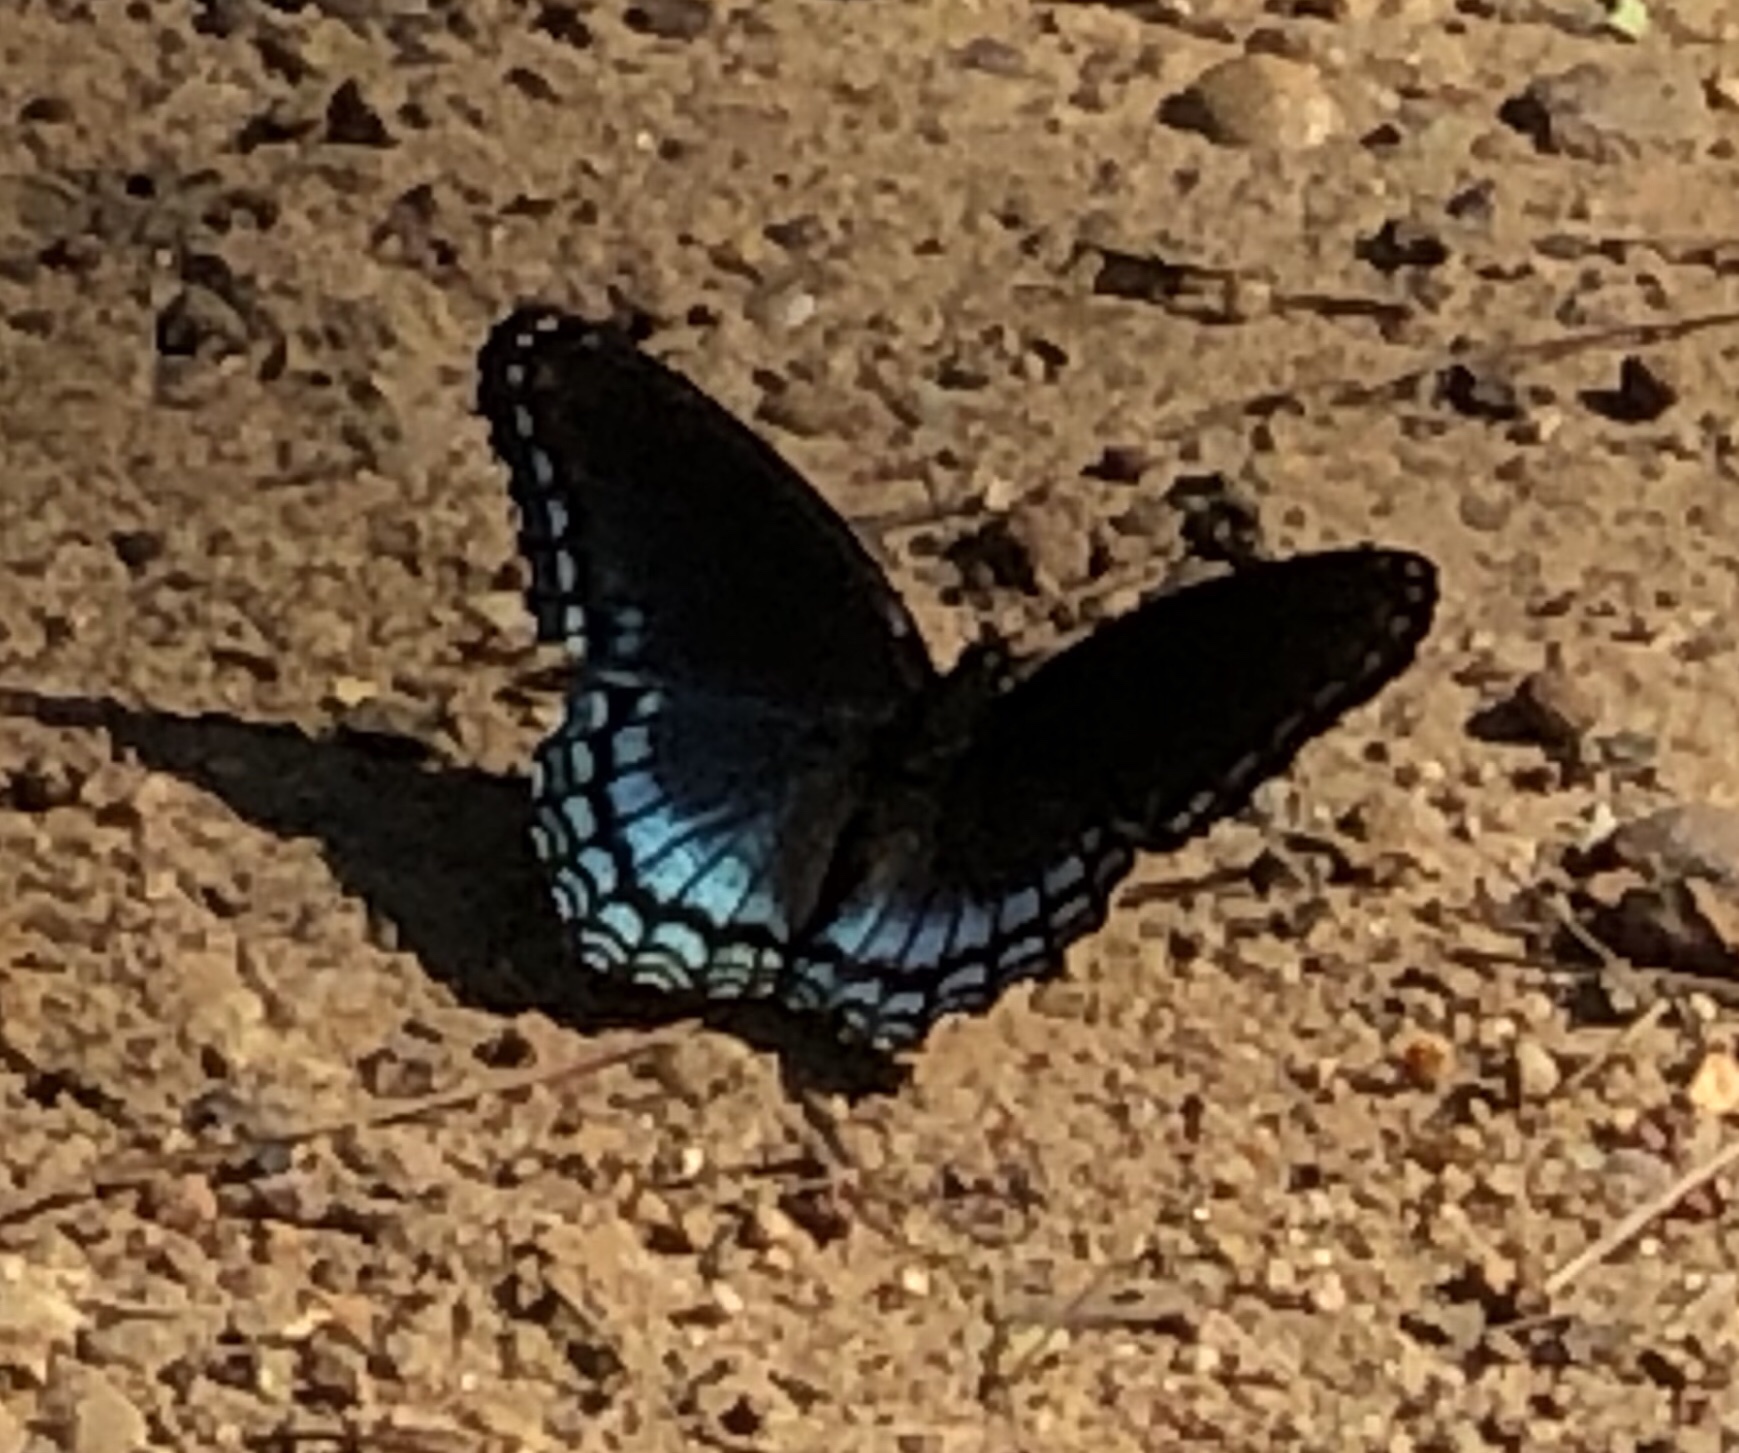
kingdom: Animalia
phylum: Arthropoda
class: Insecta
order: Lepidoptera
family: Nymphalidae
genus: Limenitis
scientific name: Limenitis astyanax
